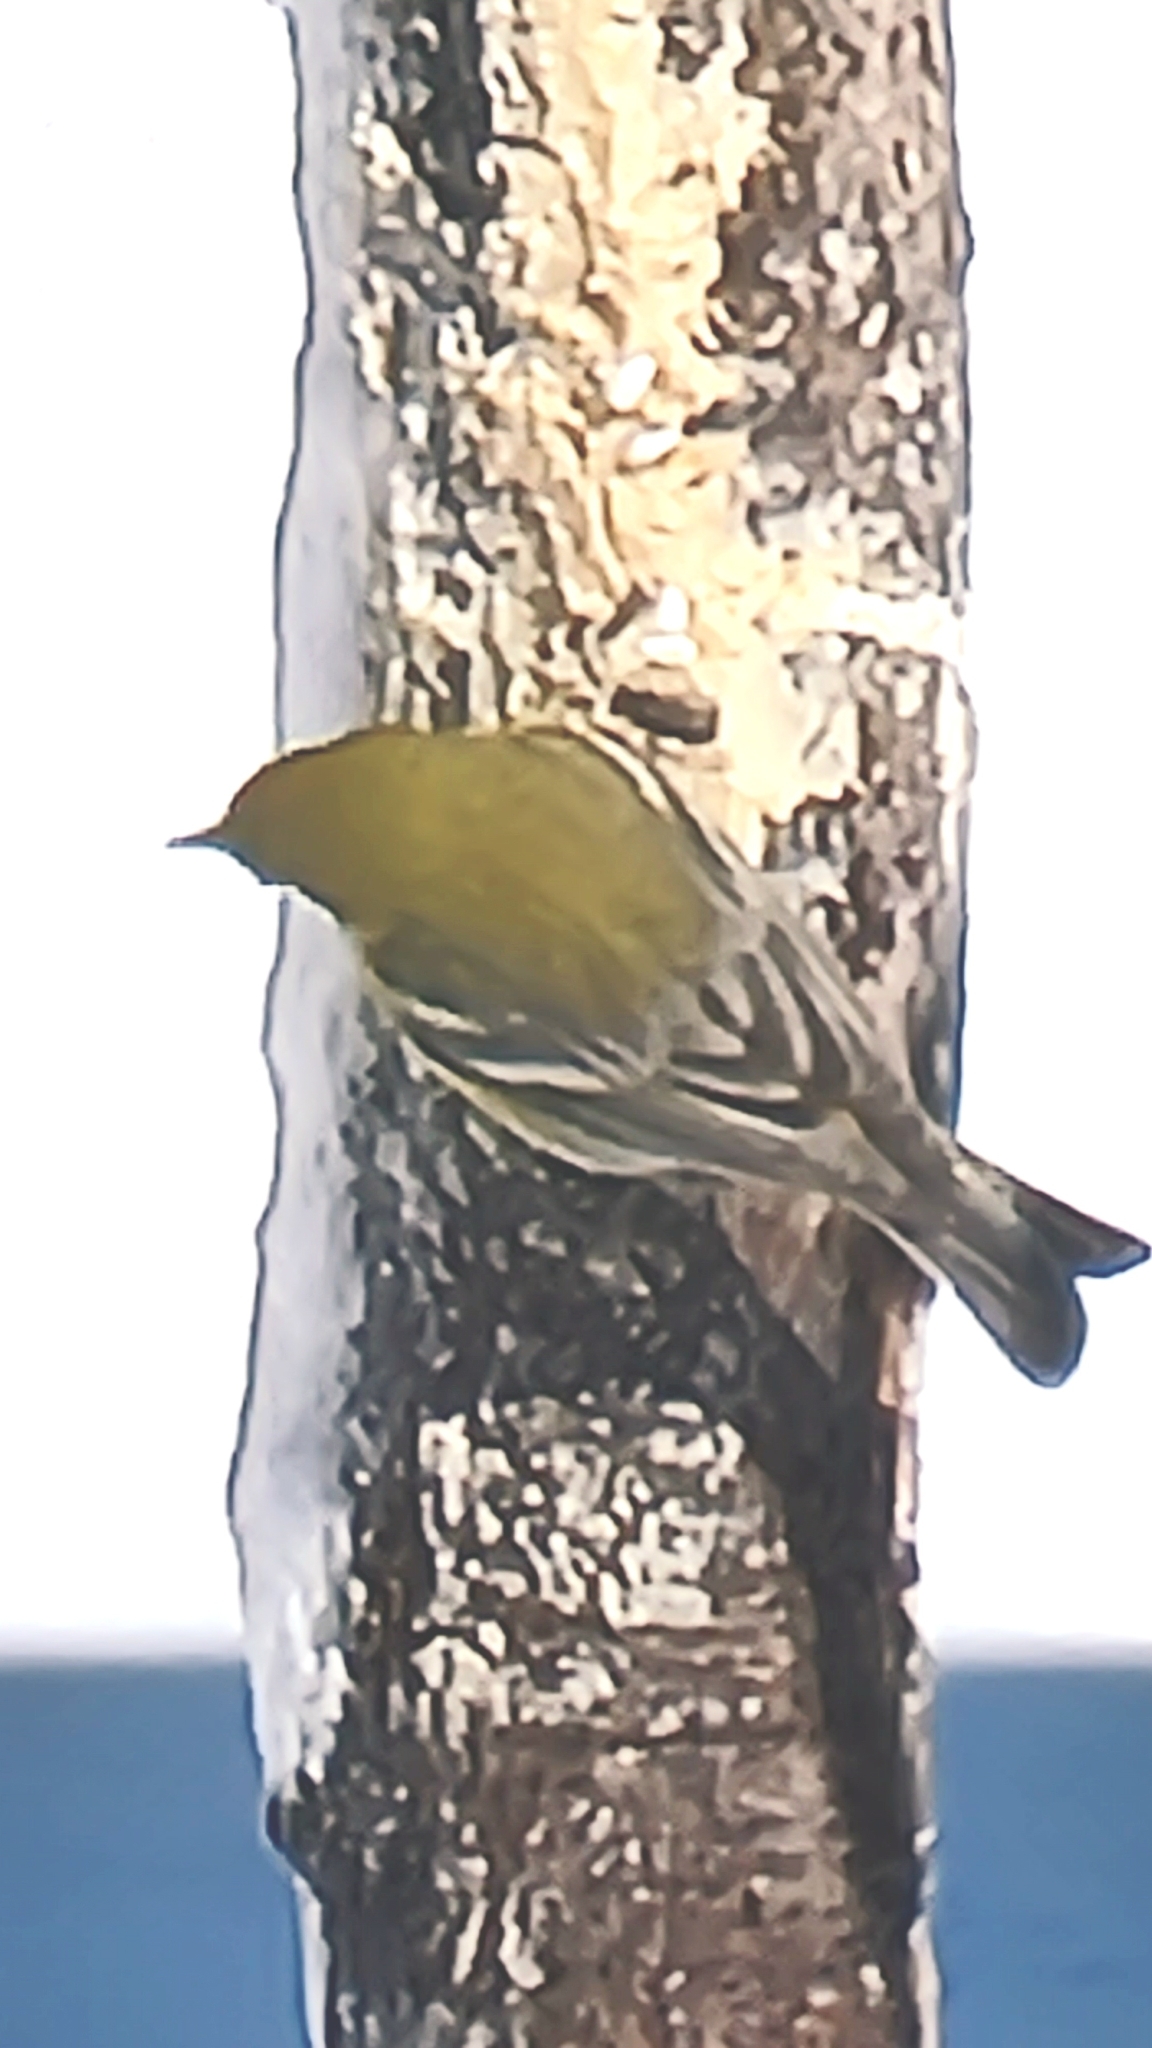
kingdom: Animalia
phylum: Chordata
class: Aves
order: Passeriformes
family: Parulidae
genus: Setophaga
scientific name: Setophaga pinus
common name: Pine warbler
